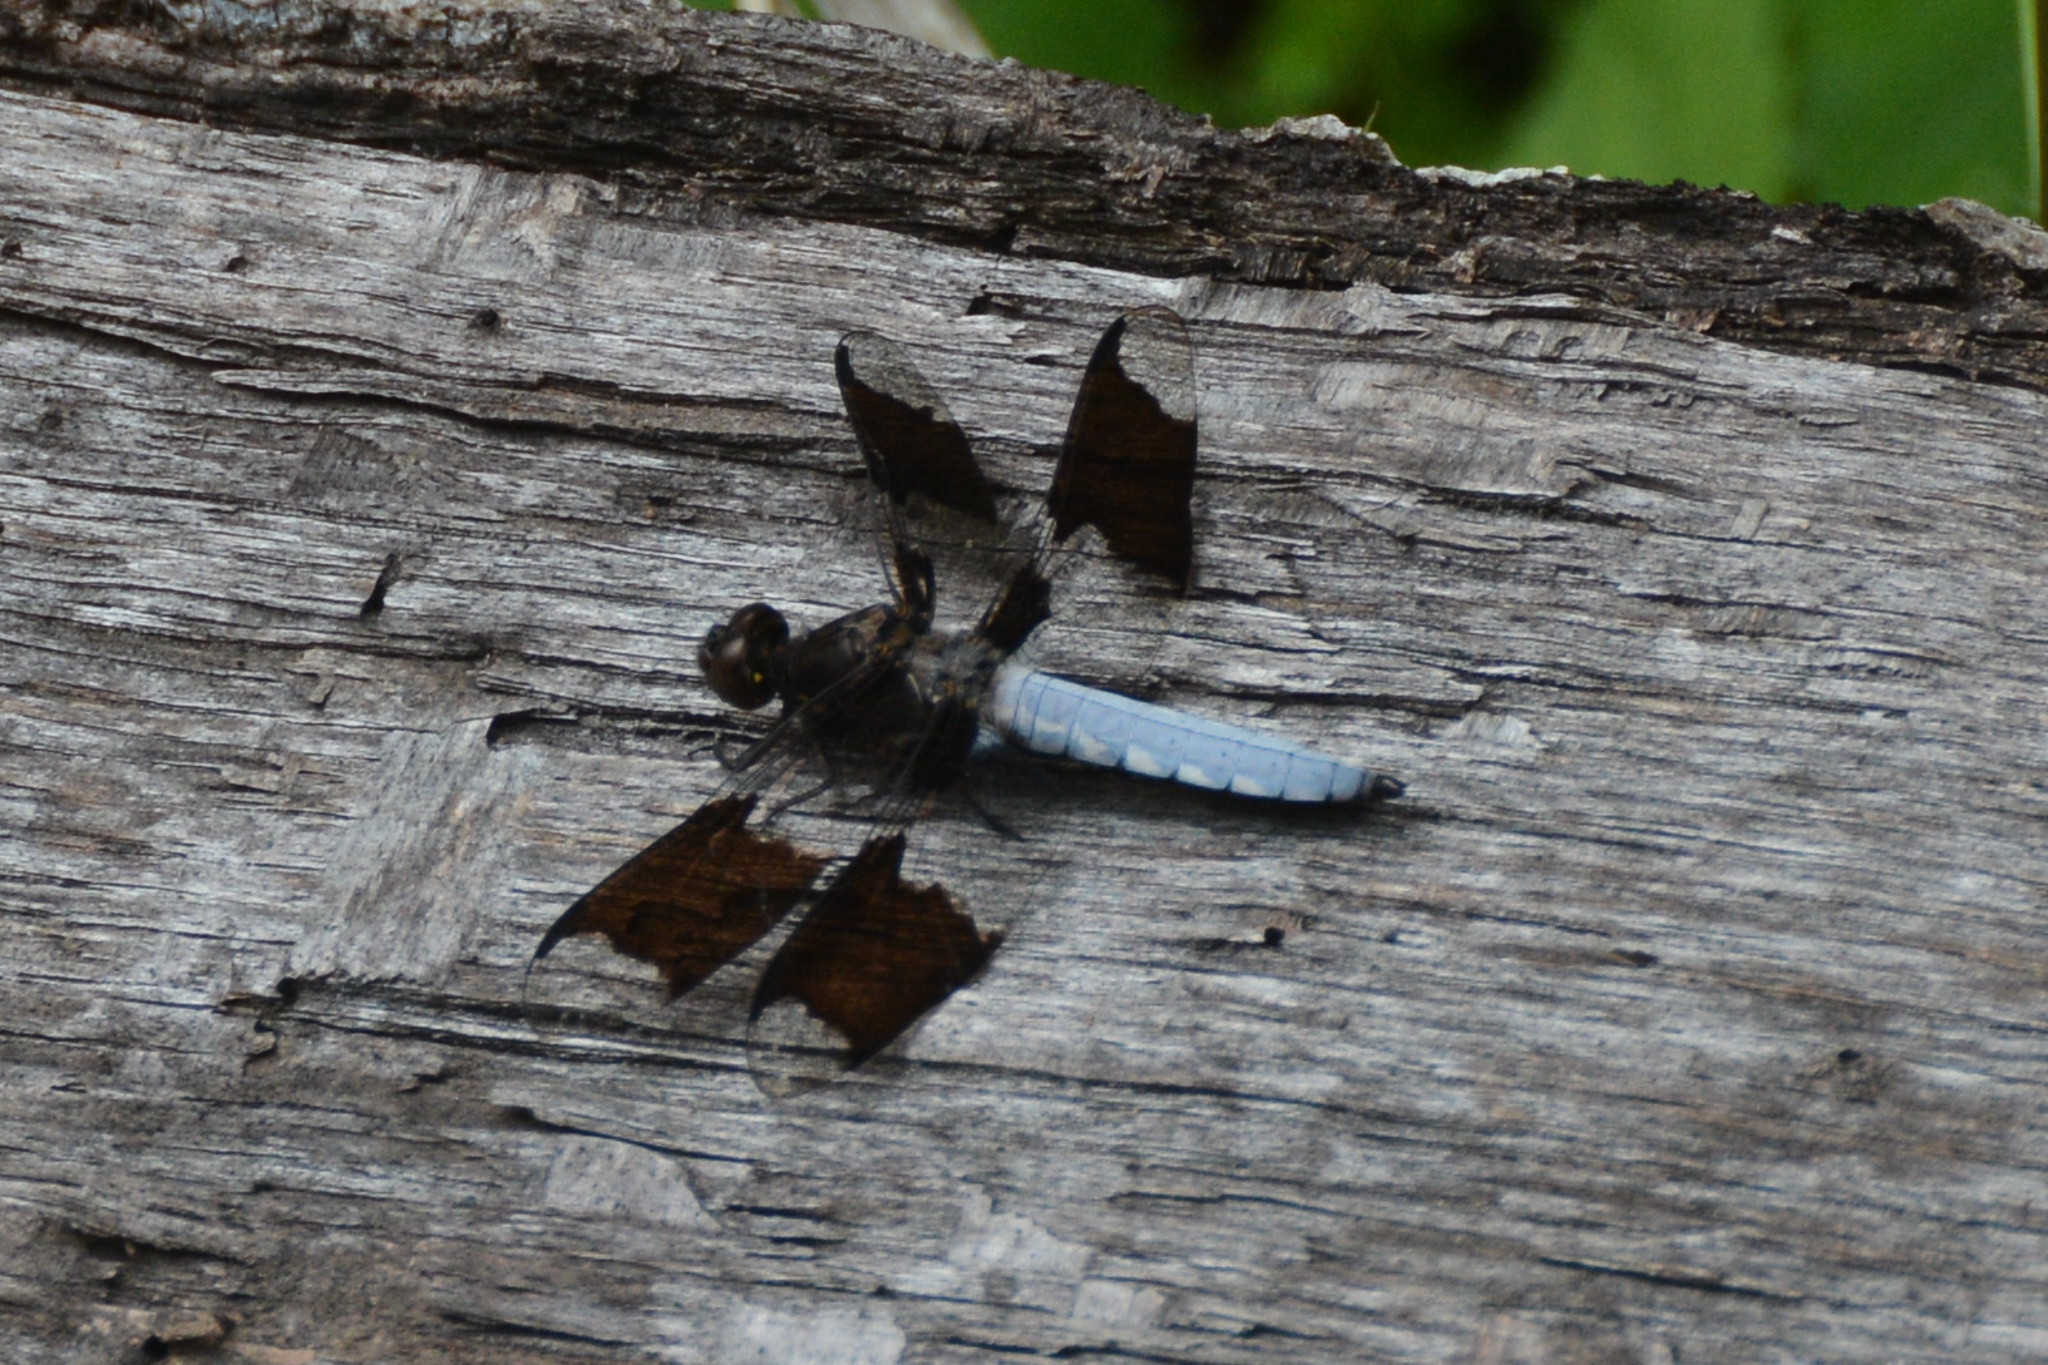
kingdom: Animalia
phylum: Arthropoda
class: Insecta
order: Odonata
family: Libellulidae
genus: Plathemis
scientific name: Plathemis lydia
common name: Common whitetail
